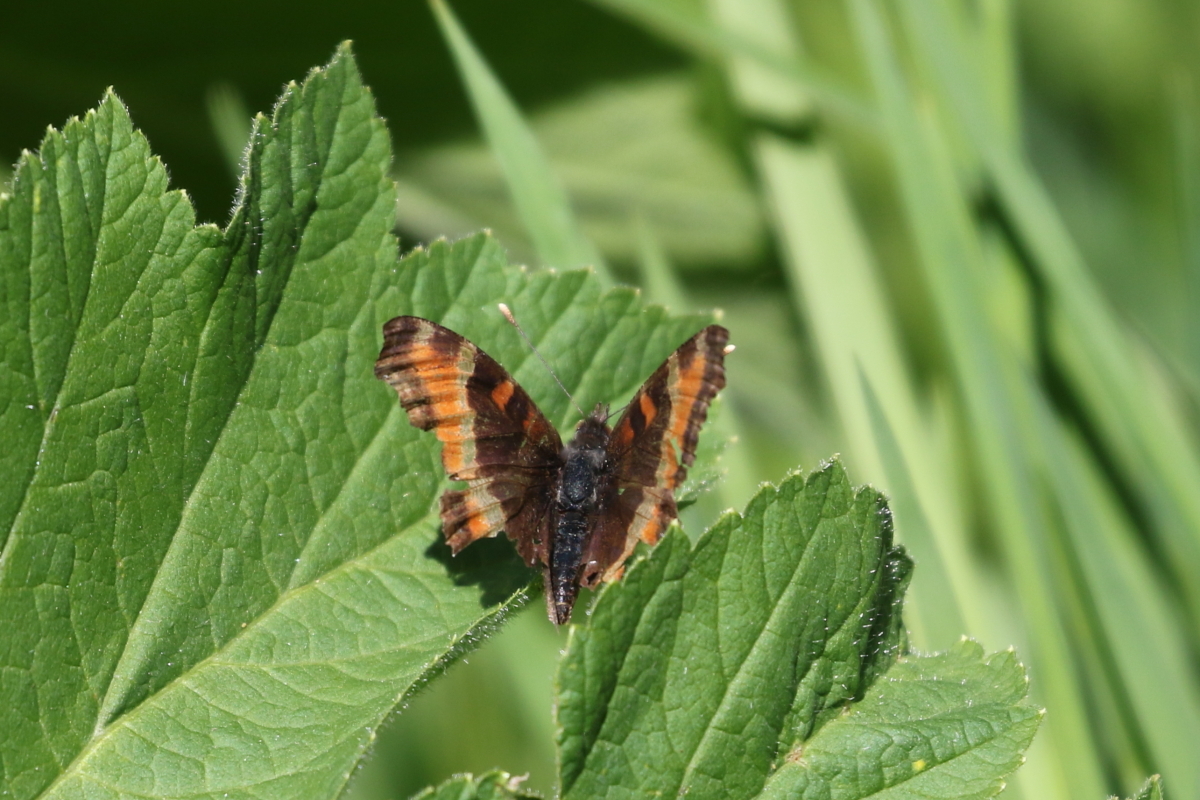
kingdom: Animalia
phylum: Arthropoda
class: Insecta
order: Lepidoptera
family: Nymphalidae
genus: Aglais
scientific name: Aglais milberti
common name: Milbert's tortoiseshell
